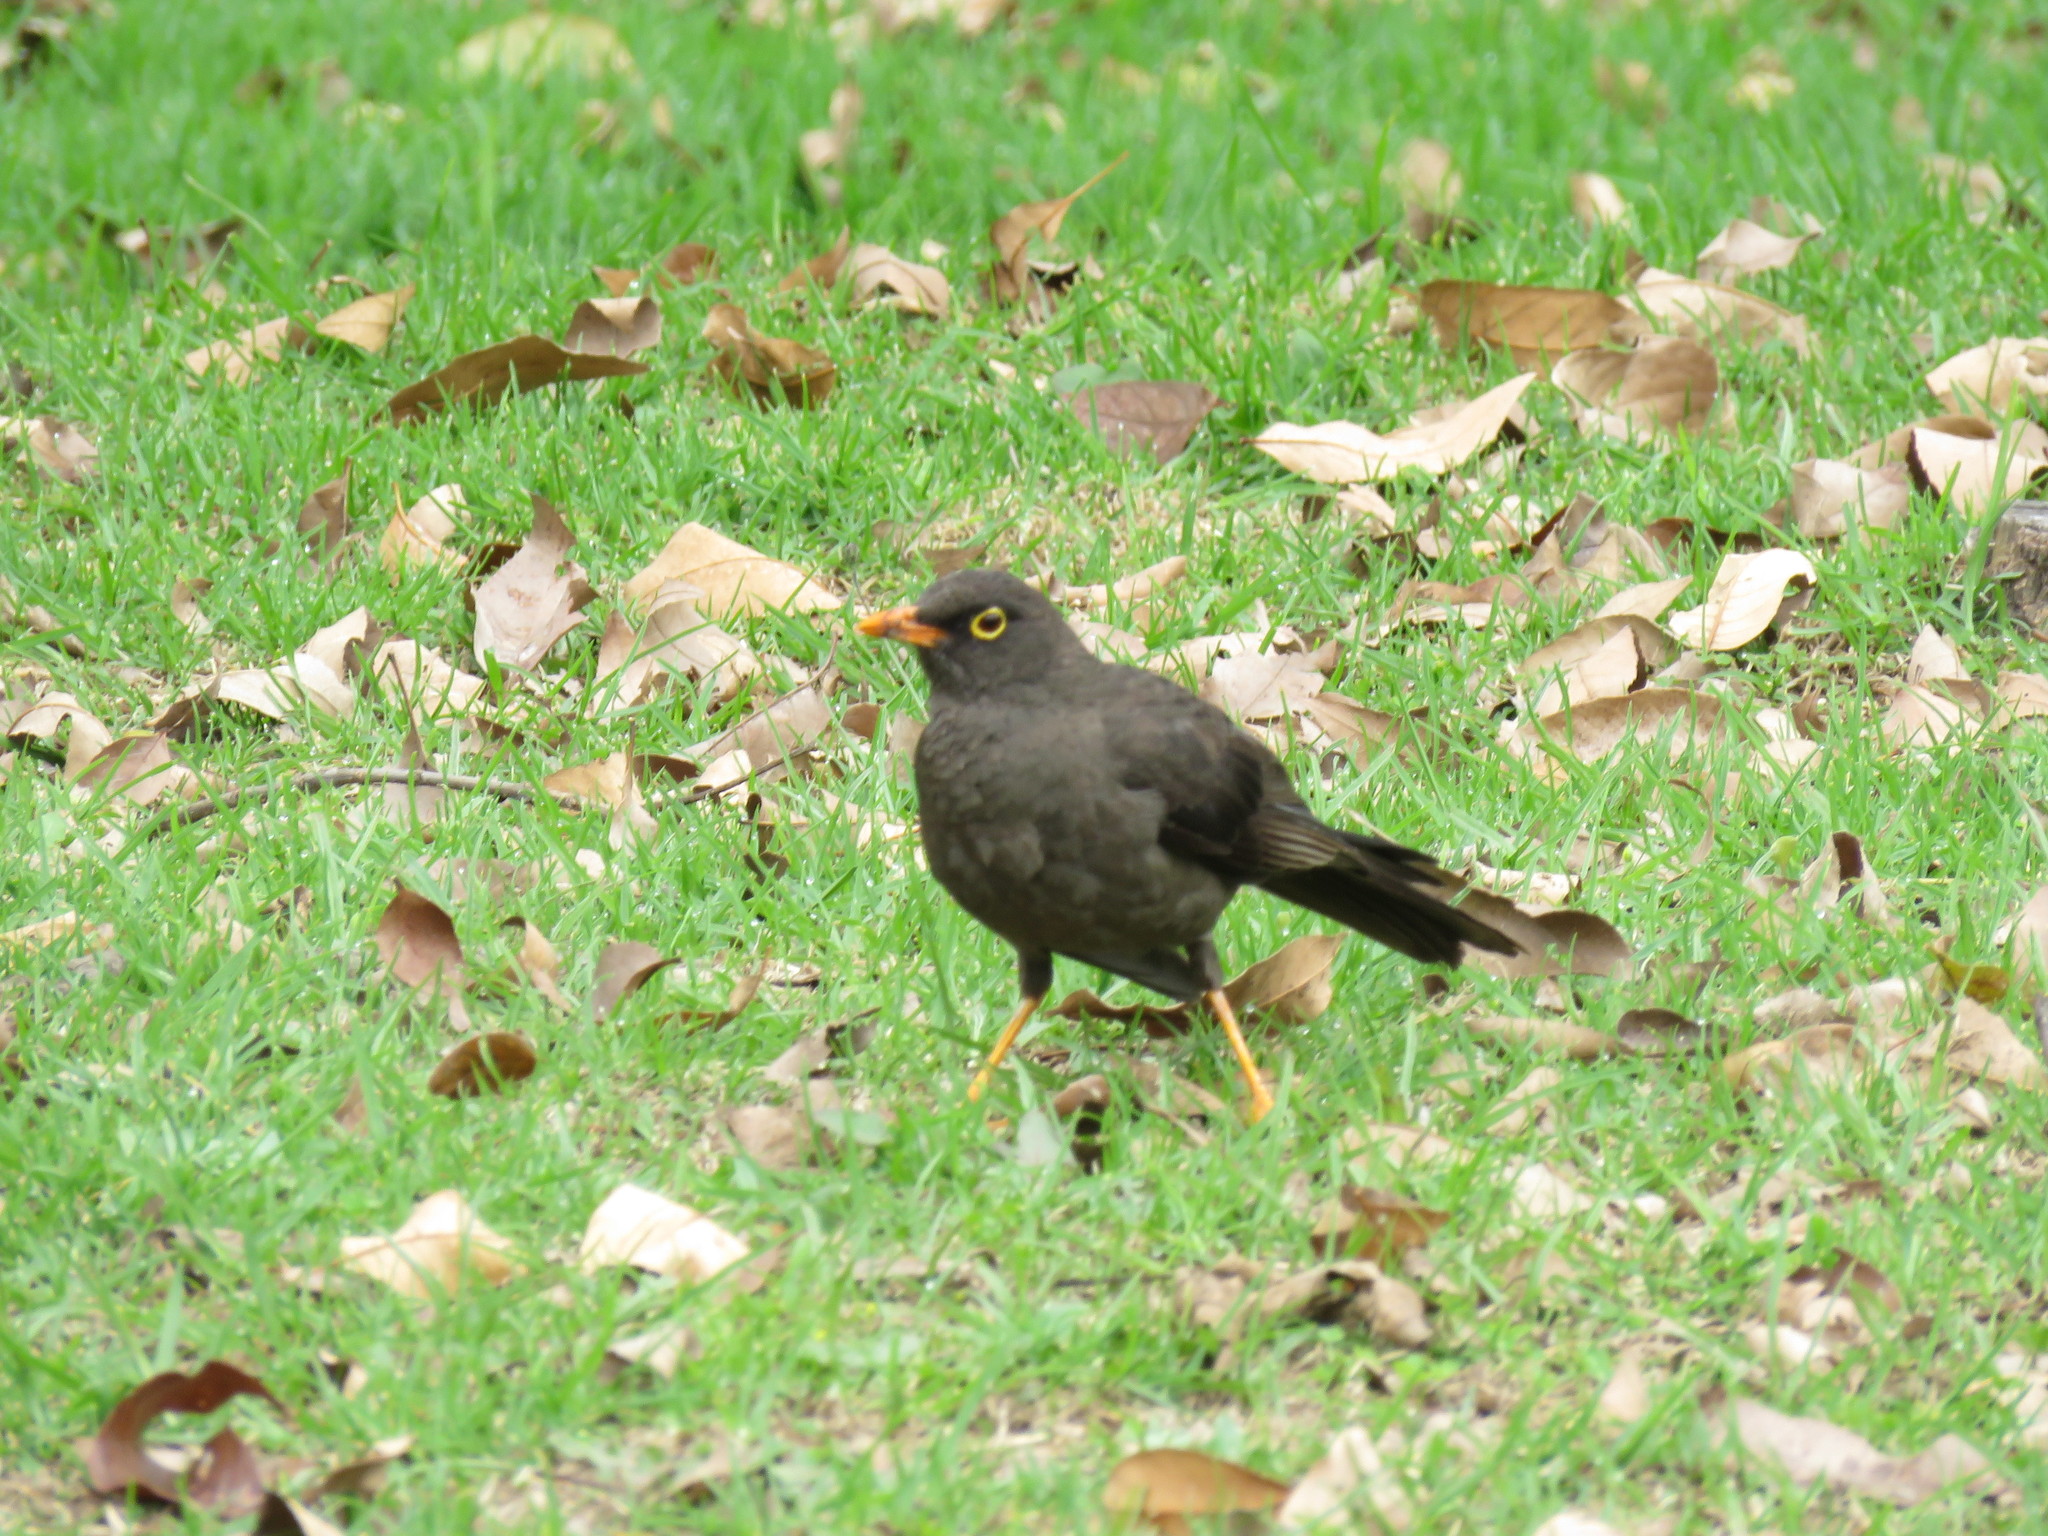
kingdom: Animalia
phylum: Chordata
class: Aves
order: Passeriformes
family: Turdidae
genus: Turdus
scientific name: Turdus fuscater
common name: Great thrush
